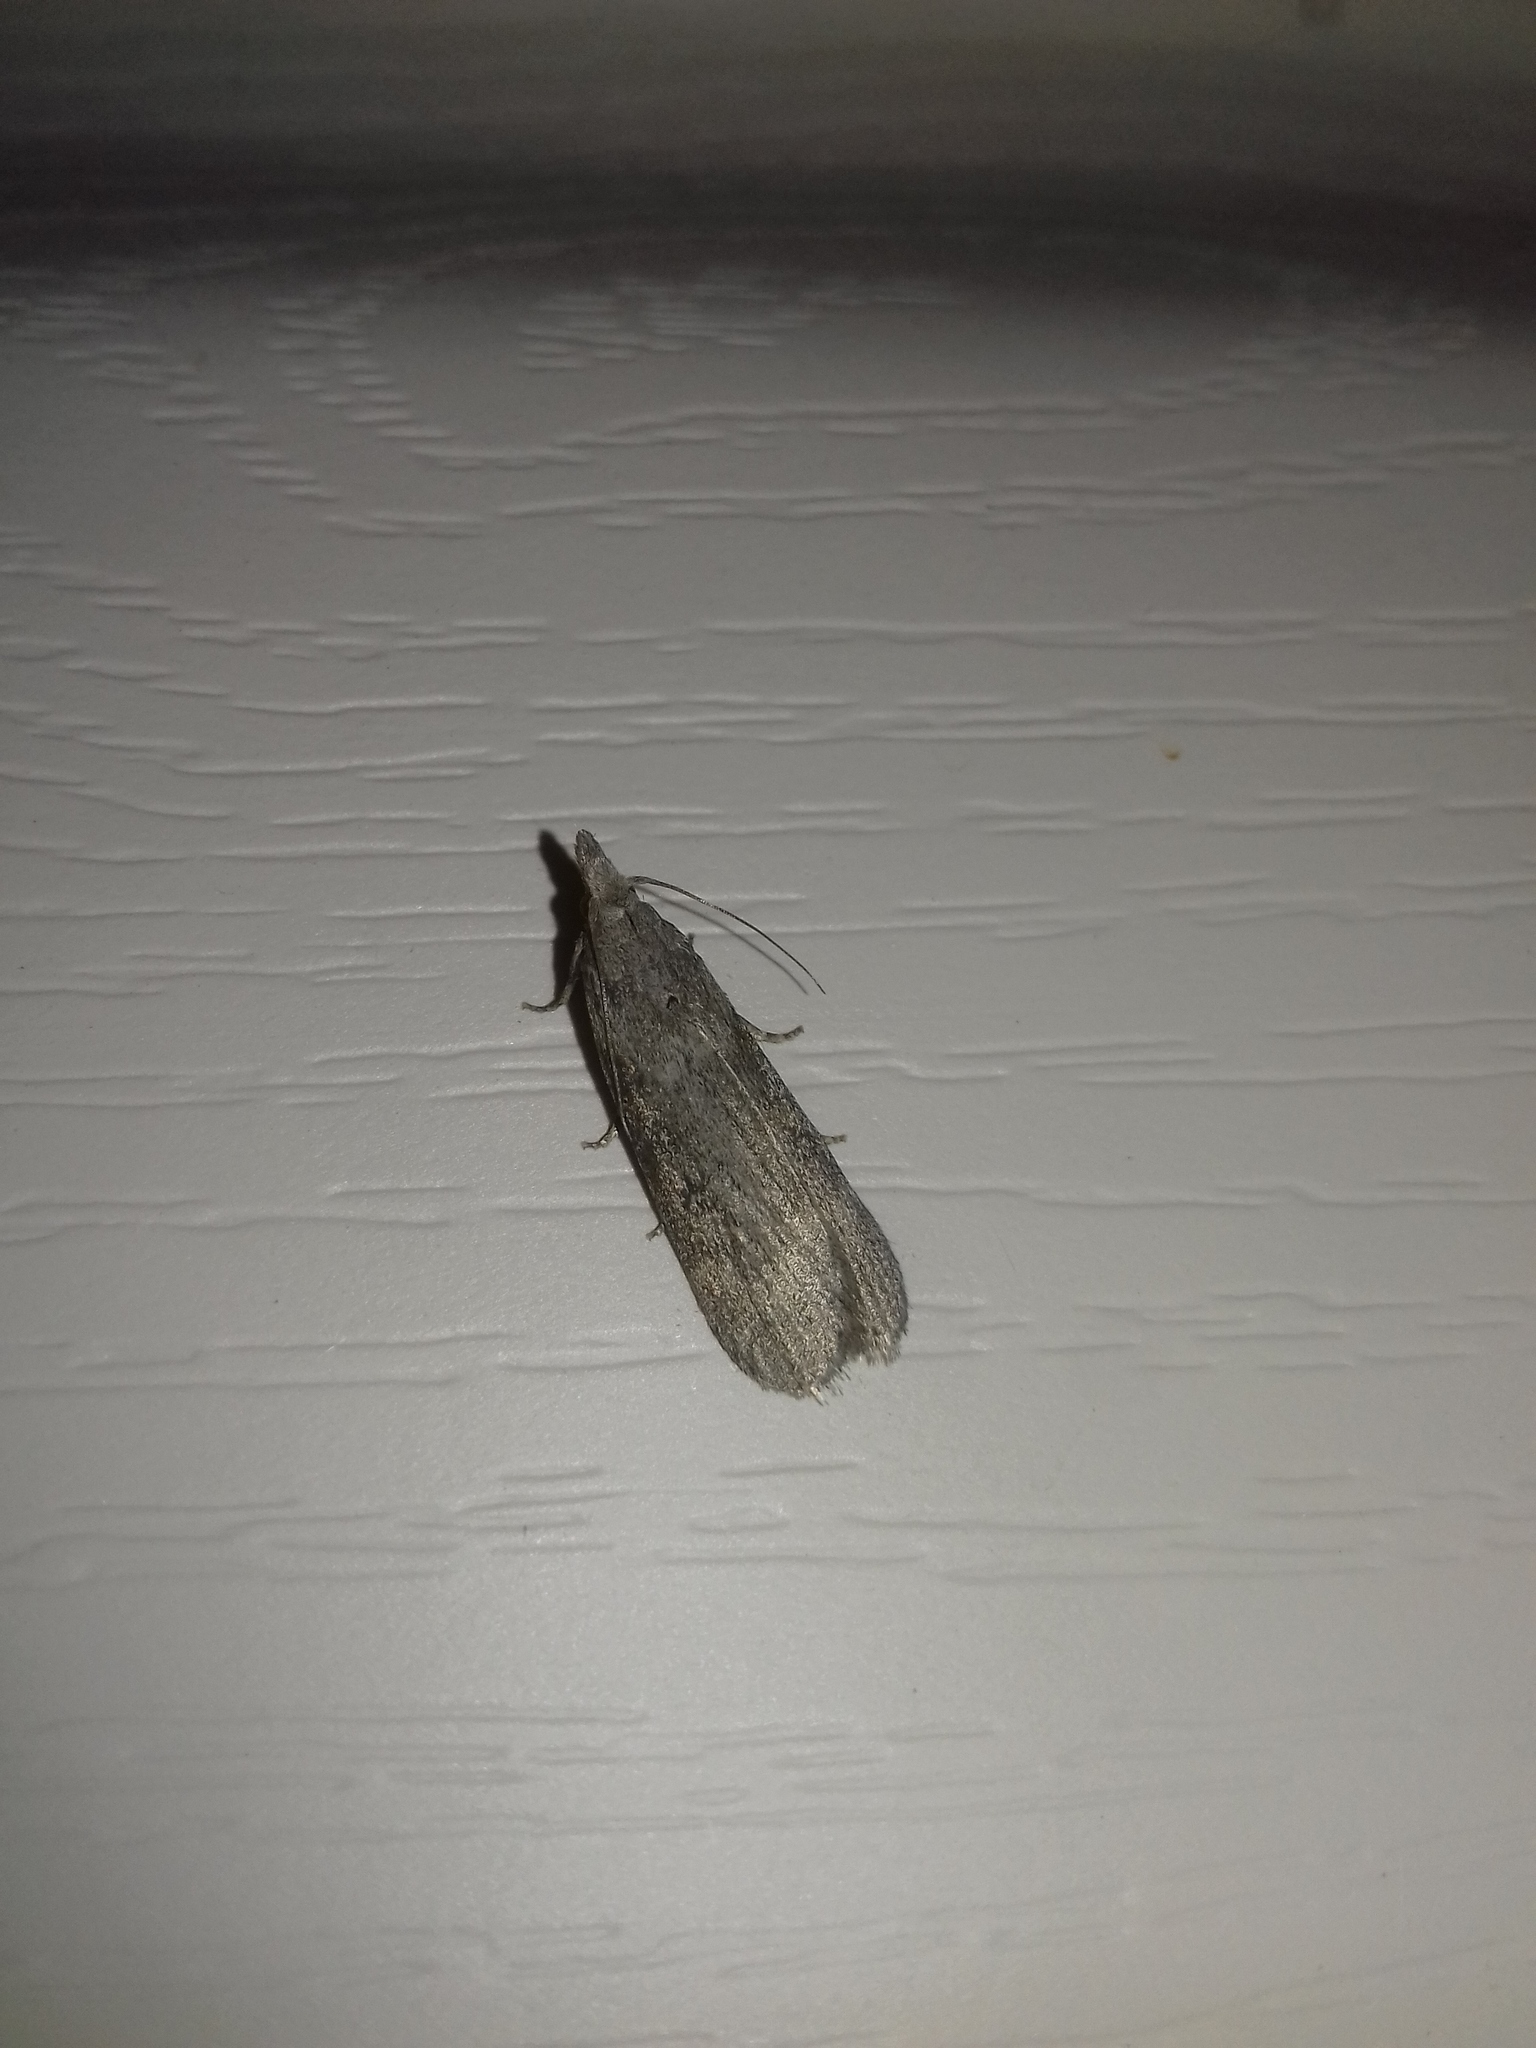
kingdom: Animalia
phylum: Arthropoda
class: Insecta
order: Lepidoptera
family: Pyralidae
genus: Lamoria
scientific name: Lamoria anella
